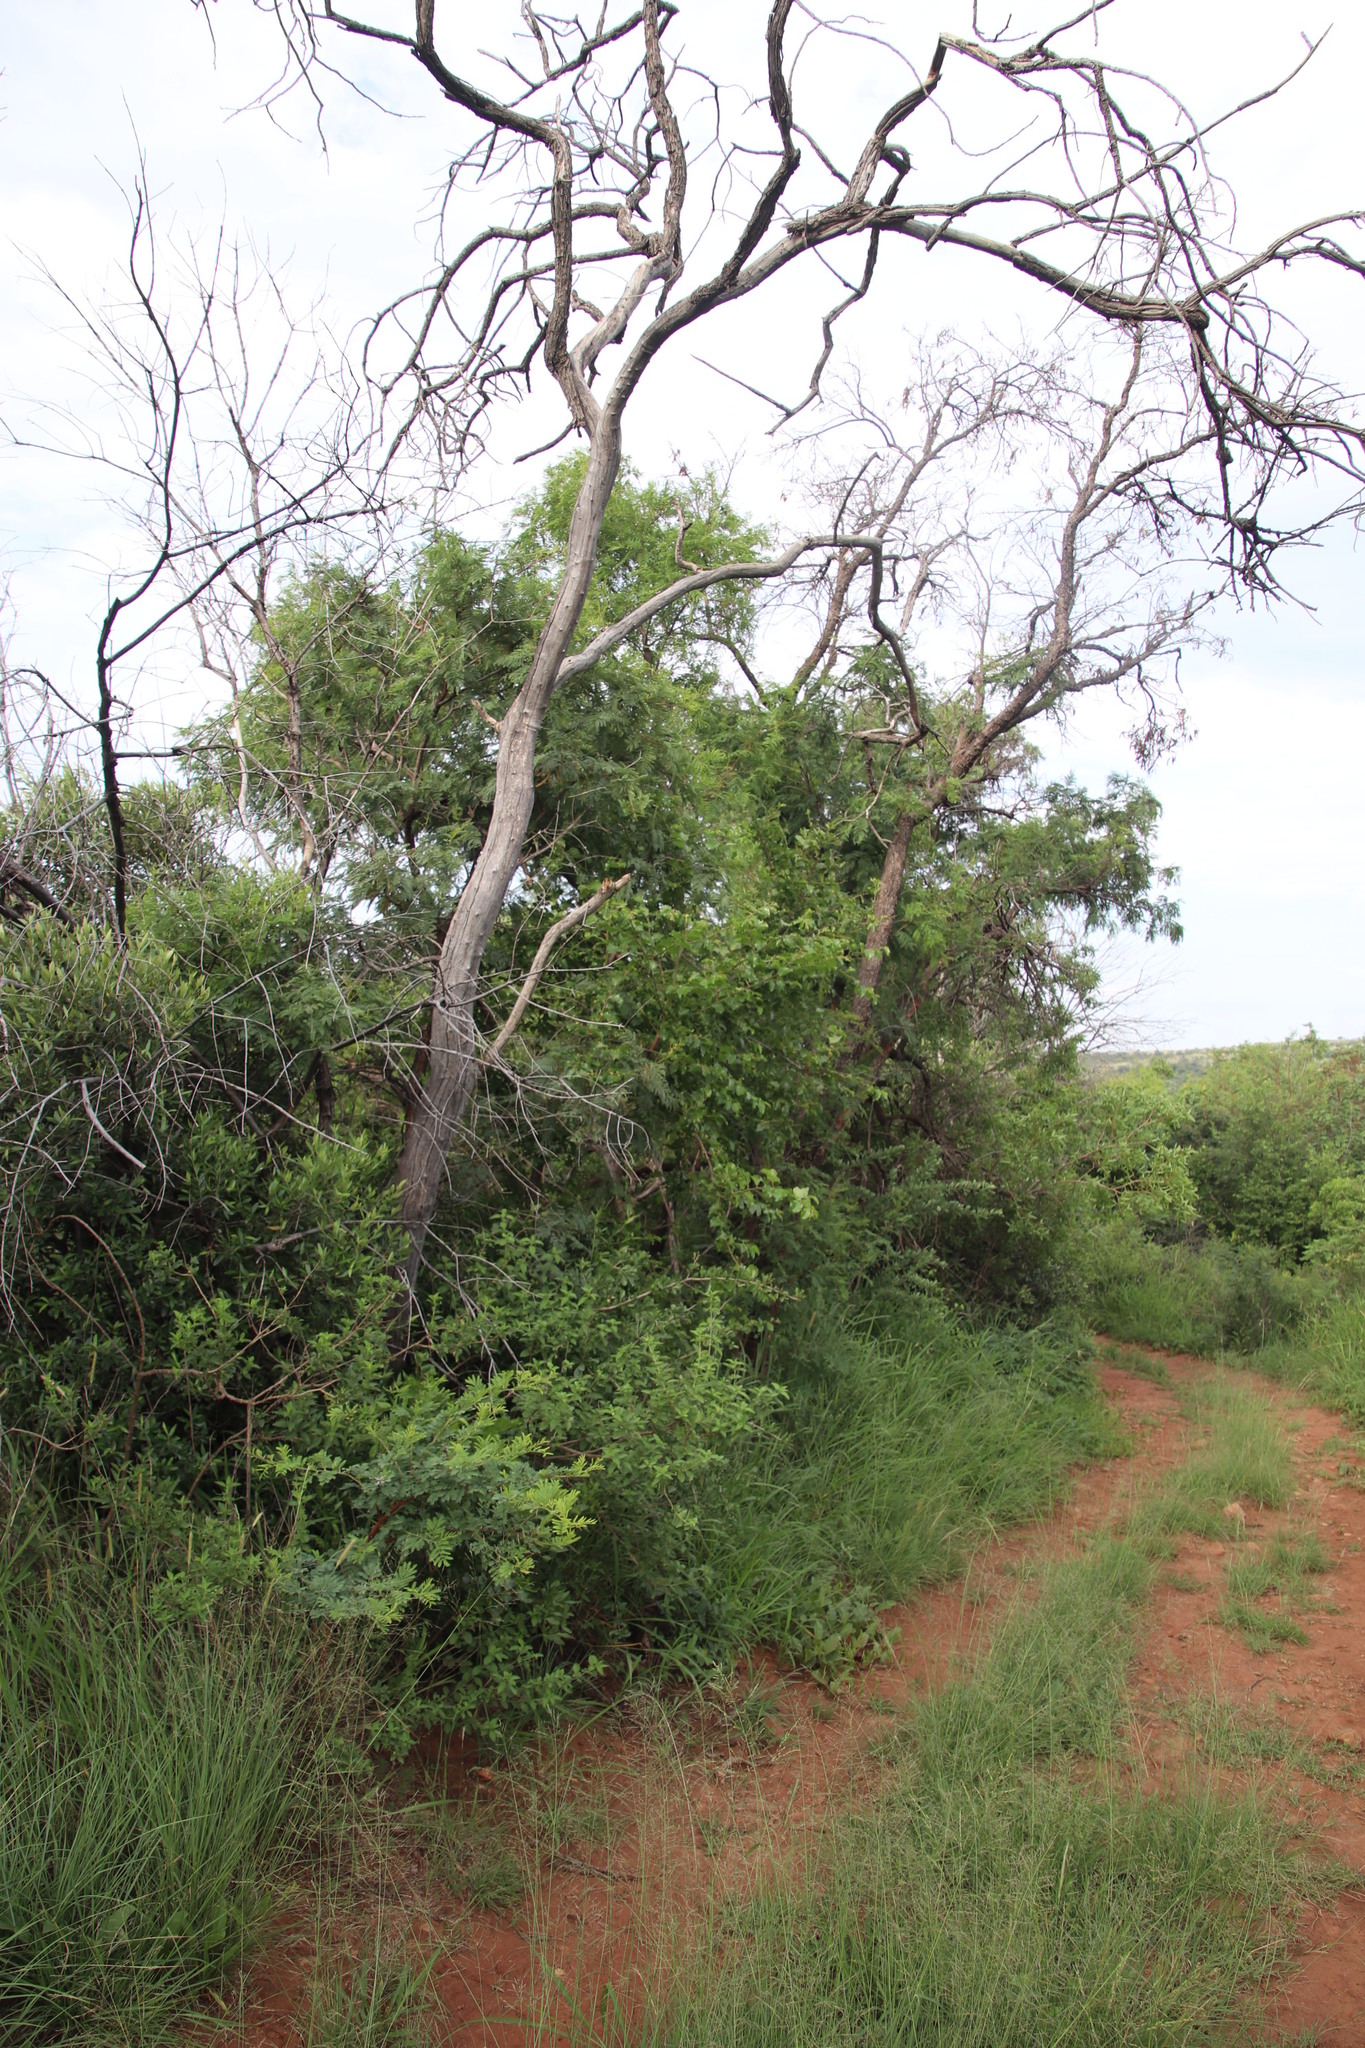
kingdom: Plantae
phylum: Tracheophyta
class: Magnoliopsida
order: Rosales
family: Rhamnaceae
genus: Ziziphus
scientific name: Ziziphus mucronata
